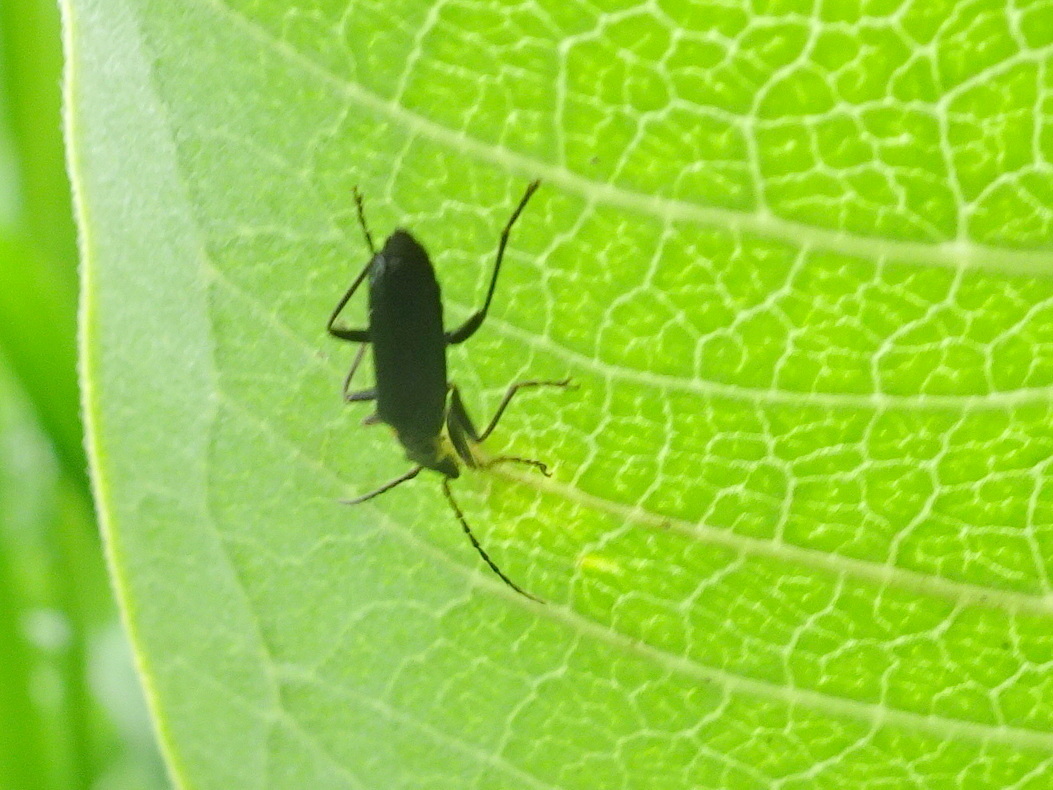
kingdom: Animalia
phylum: Arthropoda
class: Insecta
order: Coleoptera
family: Cantharidae
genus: Podabrus
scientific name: Podabrus rugosulus
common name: Wrinkled soldier beetle
